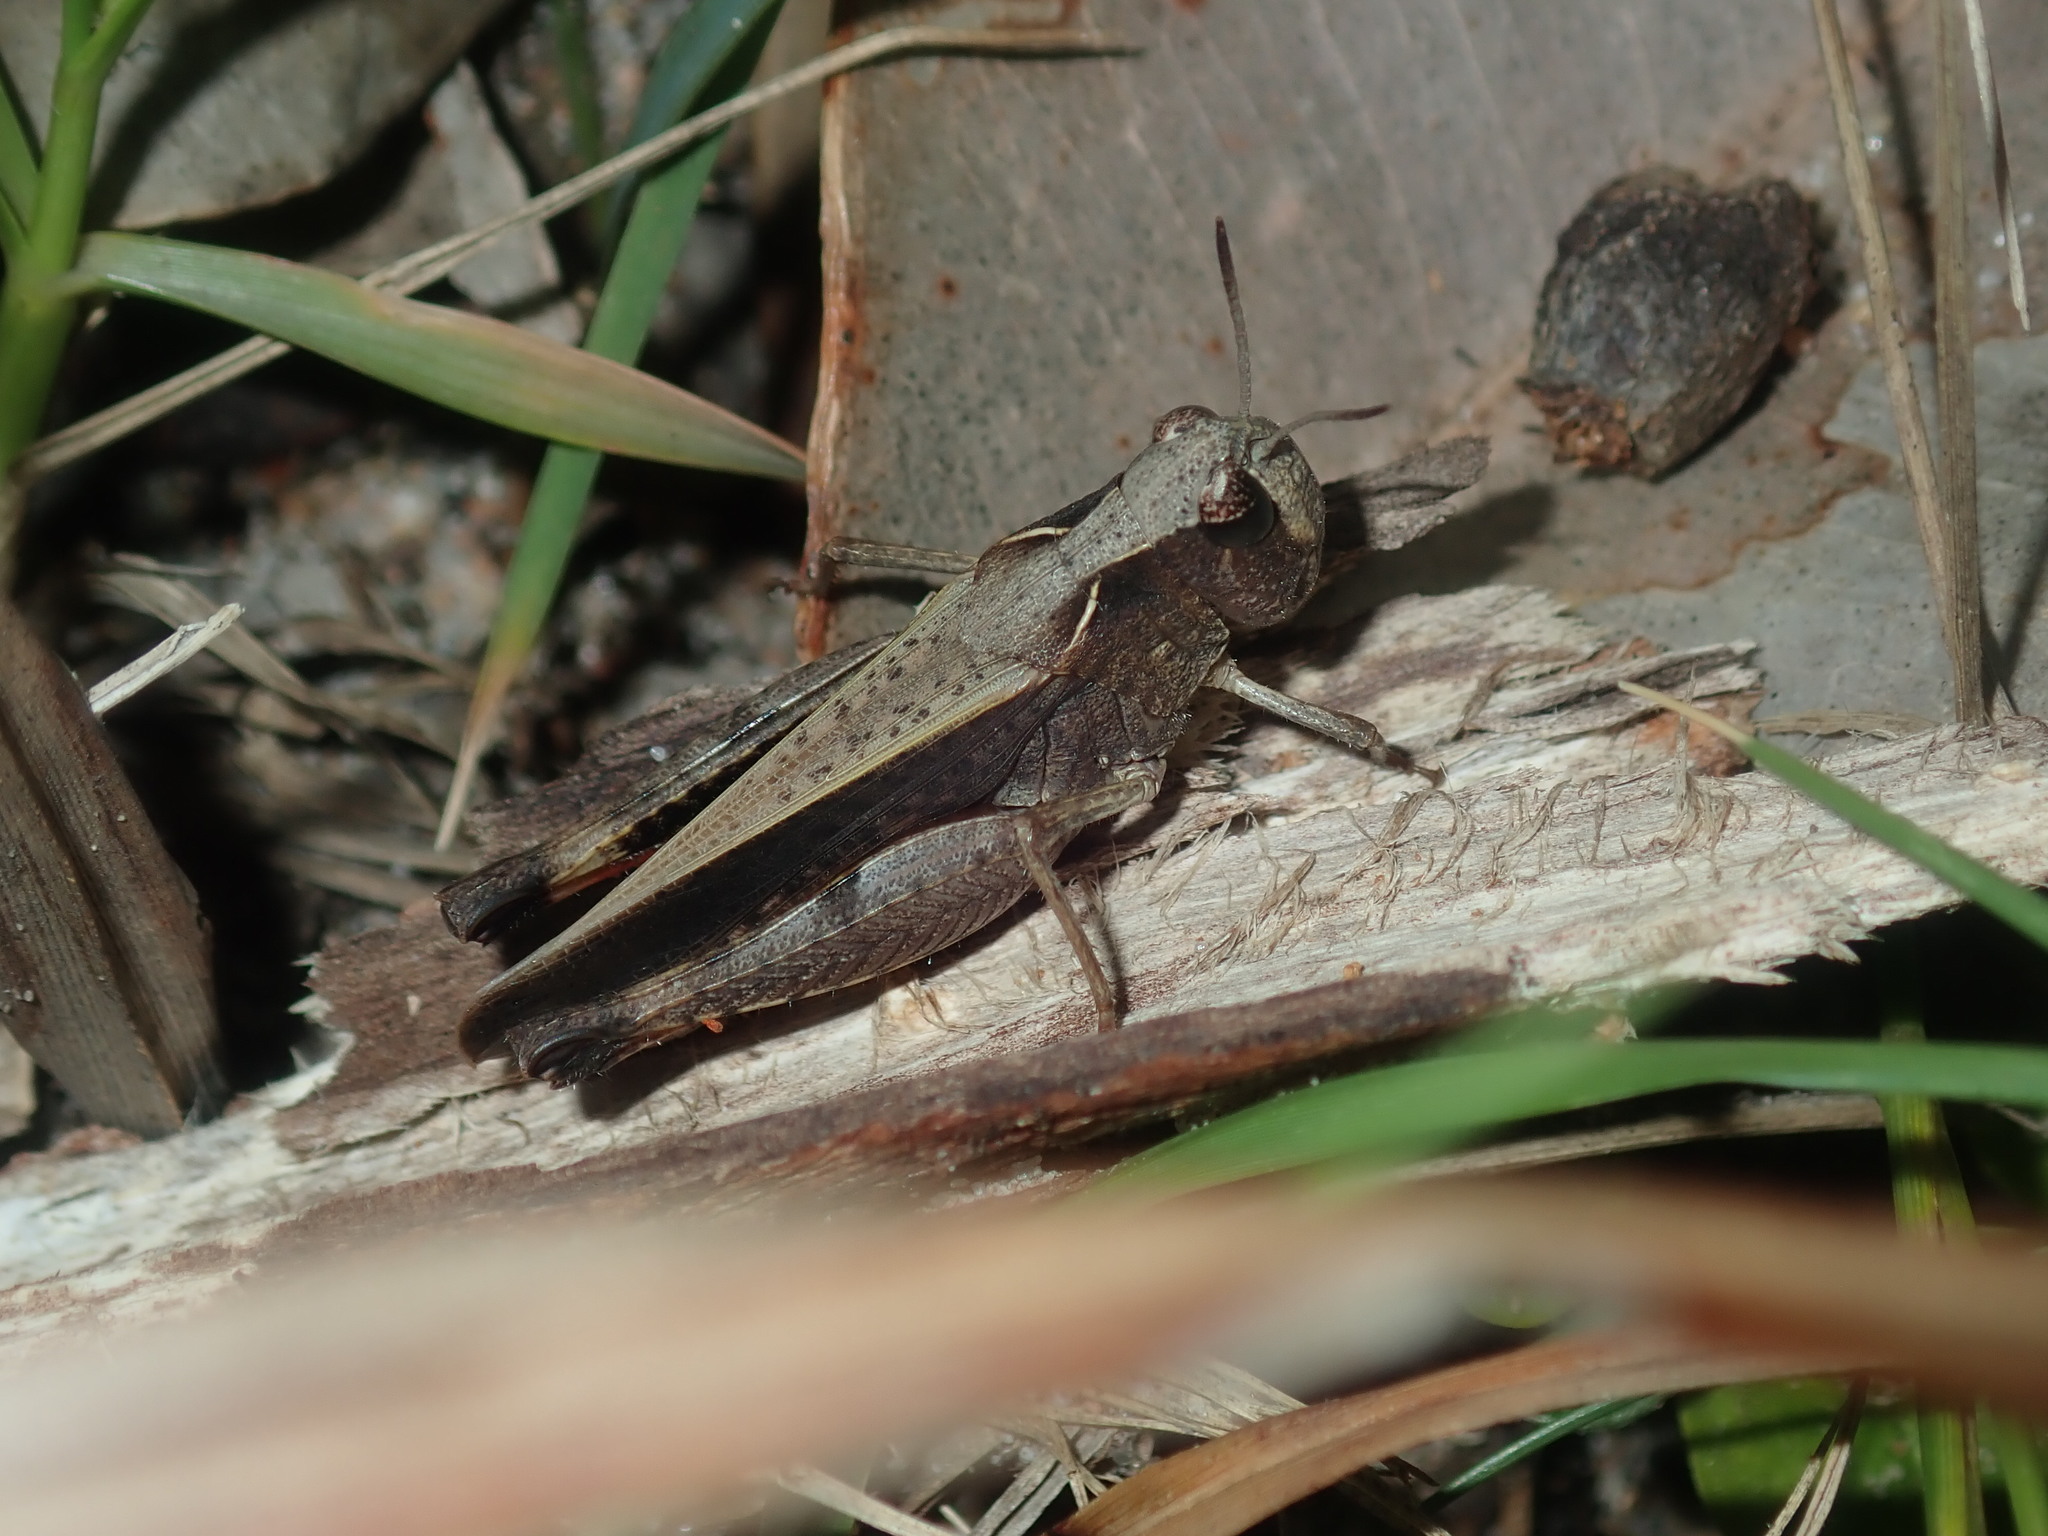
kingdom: Animalia
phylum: Arthropoda
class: Insecta
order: Orthoptera
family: Acrididae
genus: Cryptobothrus
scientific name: Cryptobothrus chrysophorus
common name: Golden bandwing
